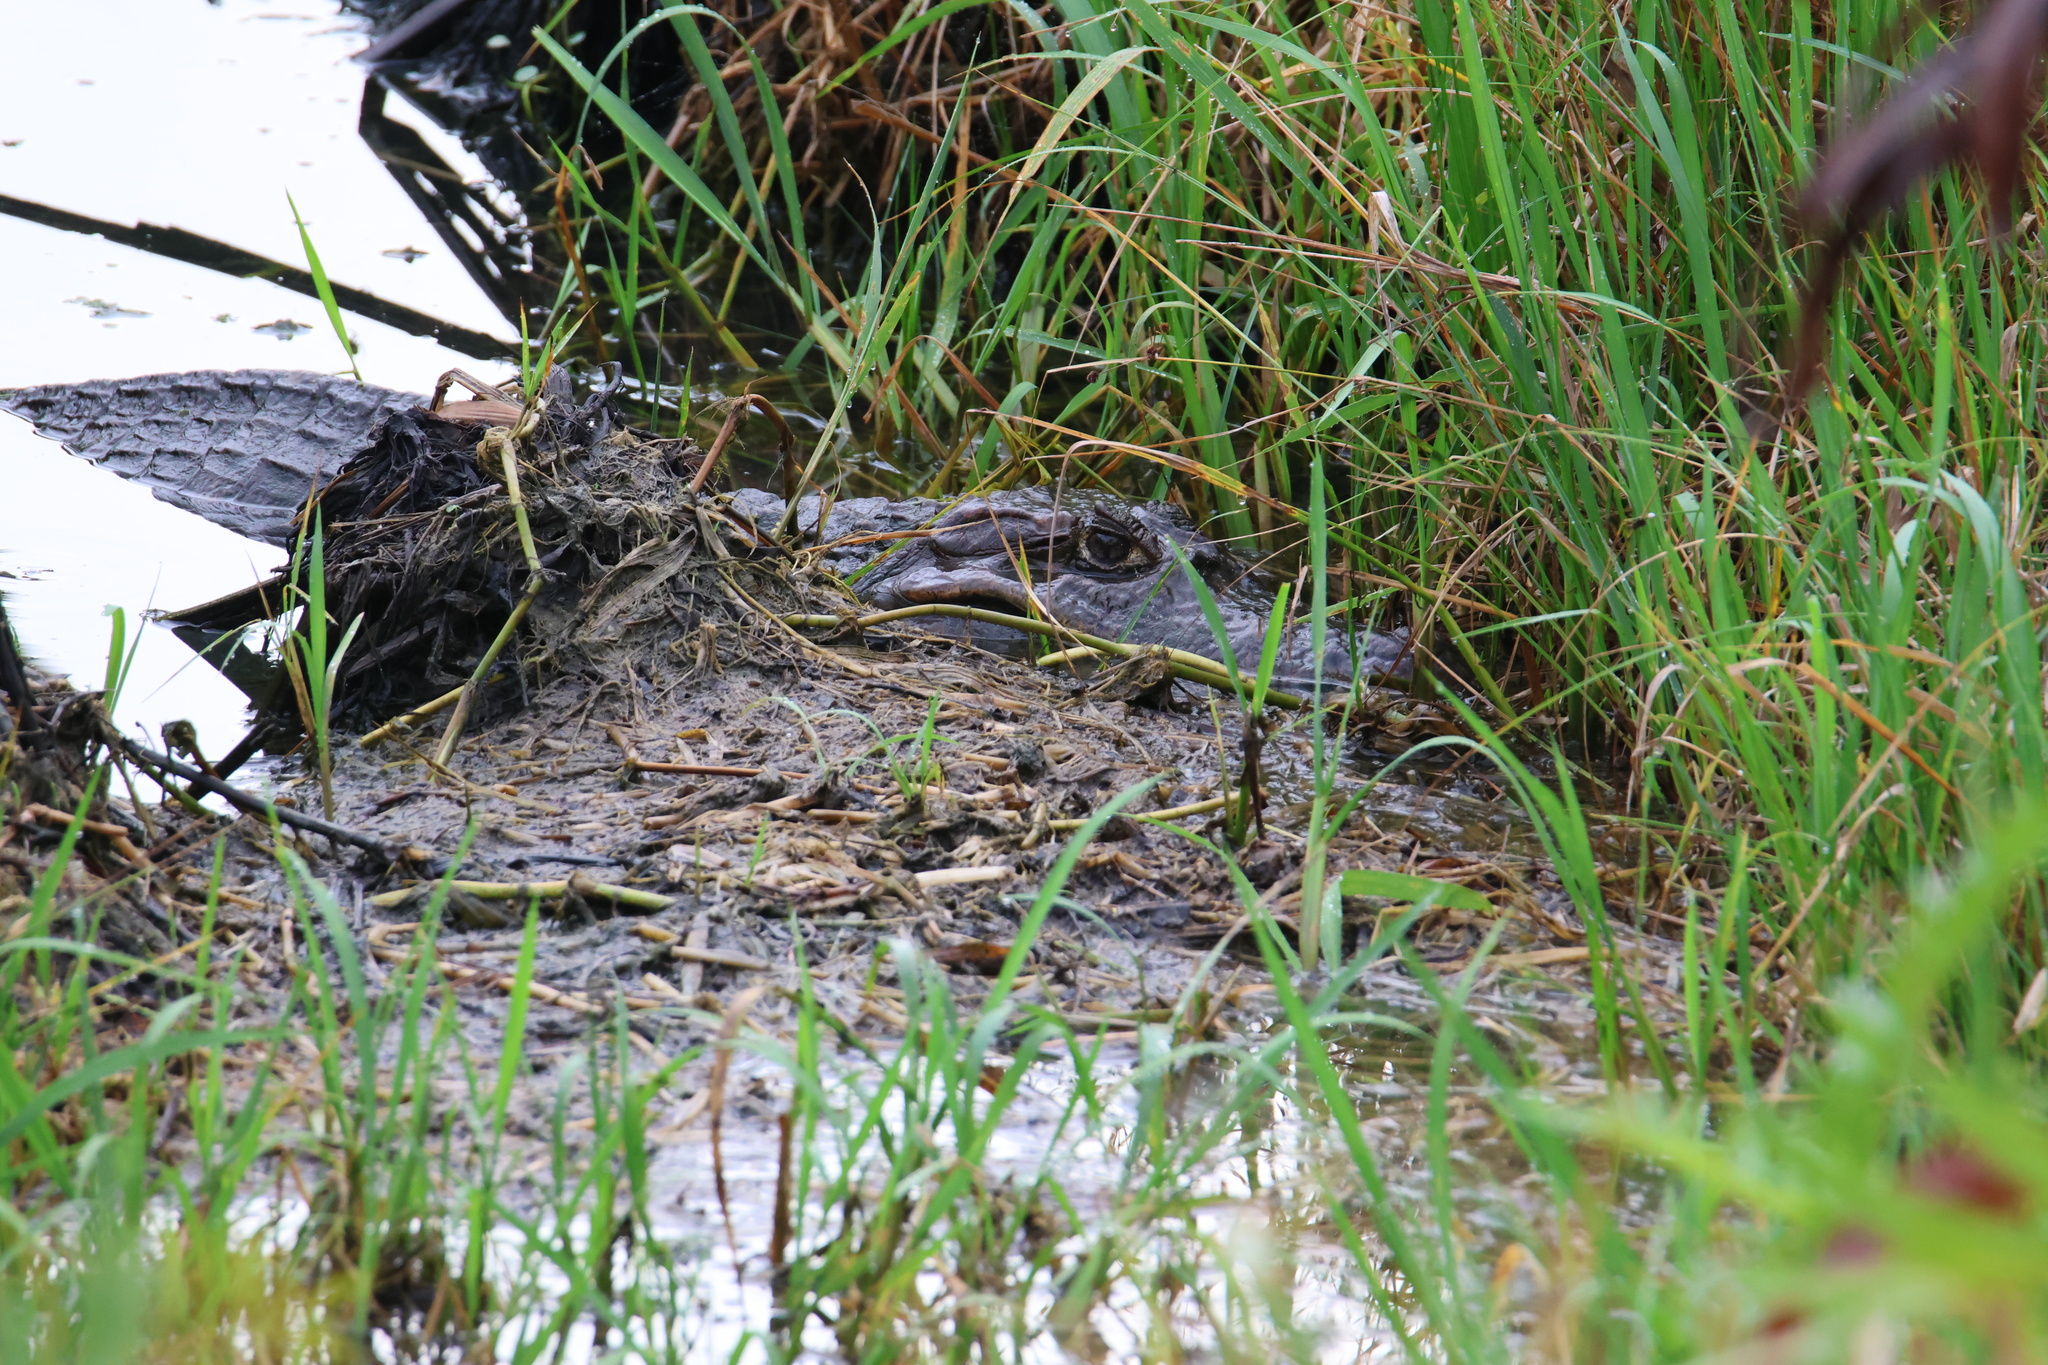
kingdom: Animalia
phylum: Chordata
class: Crocodylia
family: Crocodylidae
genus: Crocodylus
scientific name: Crocodylus acutus
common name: American crocodile
